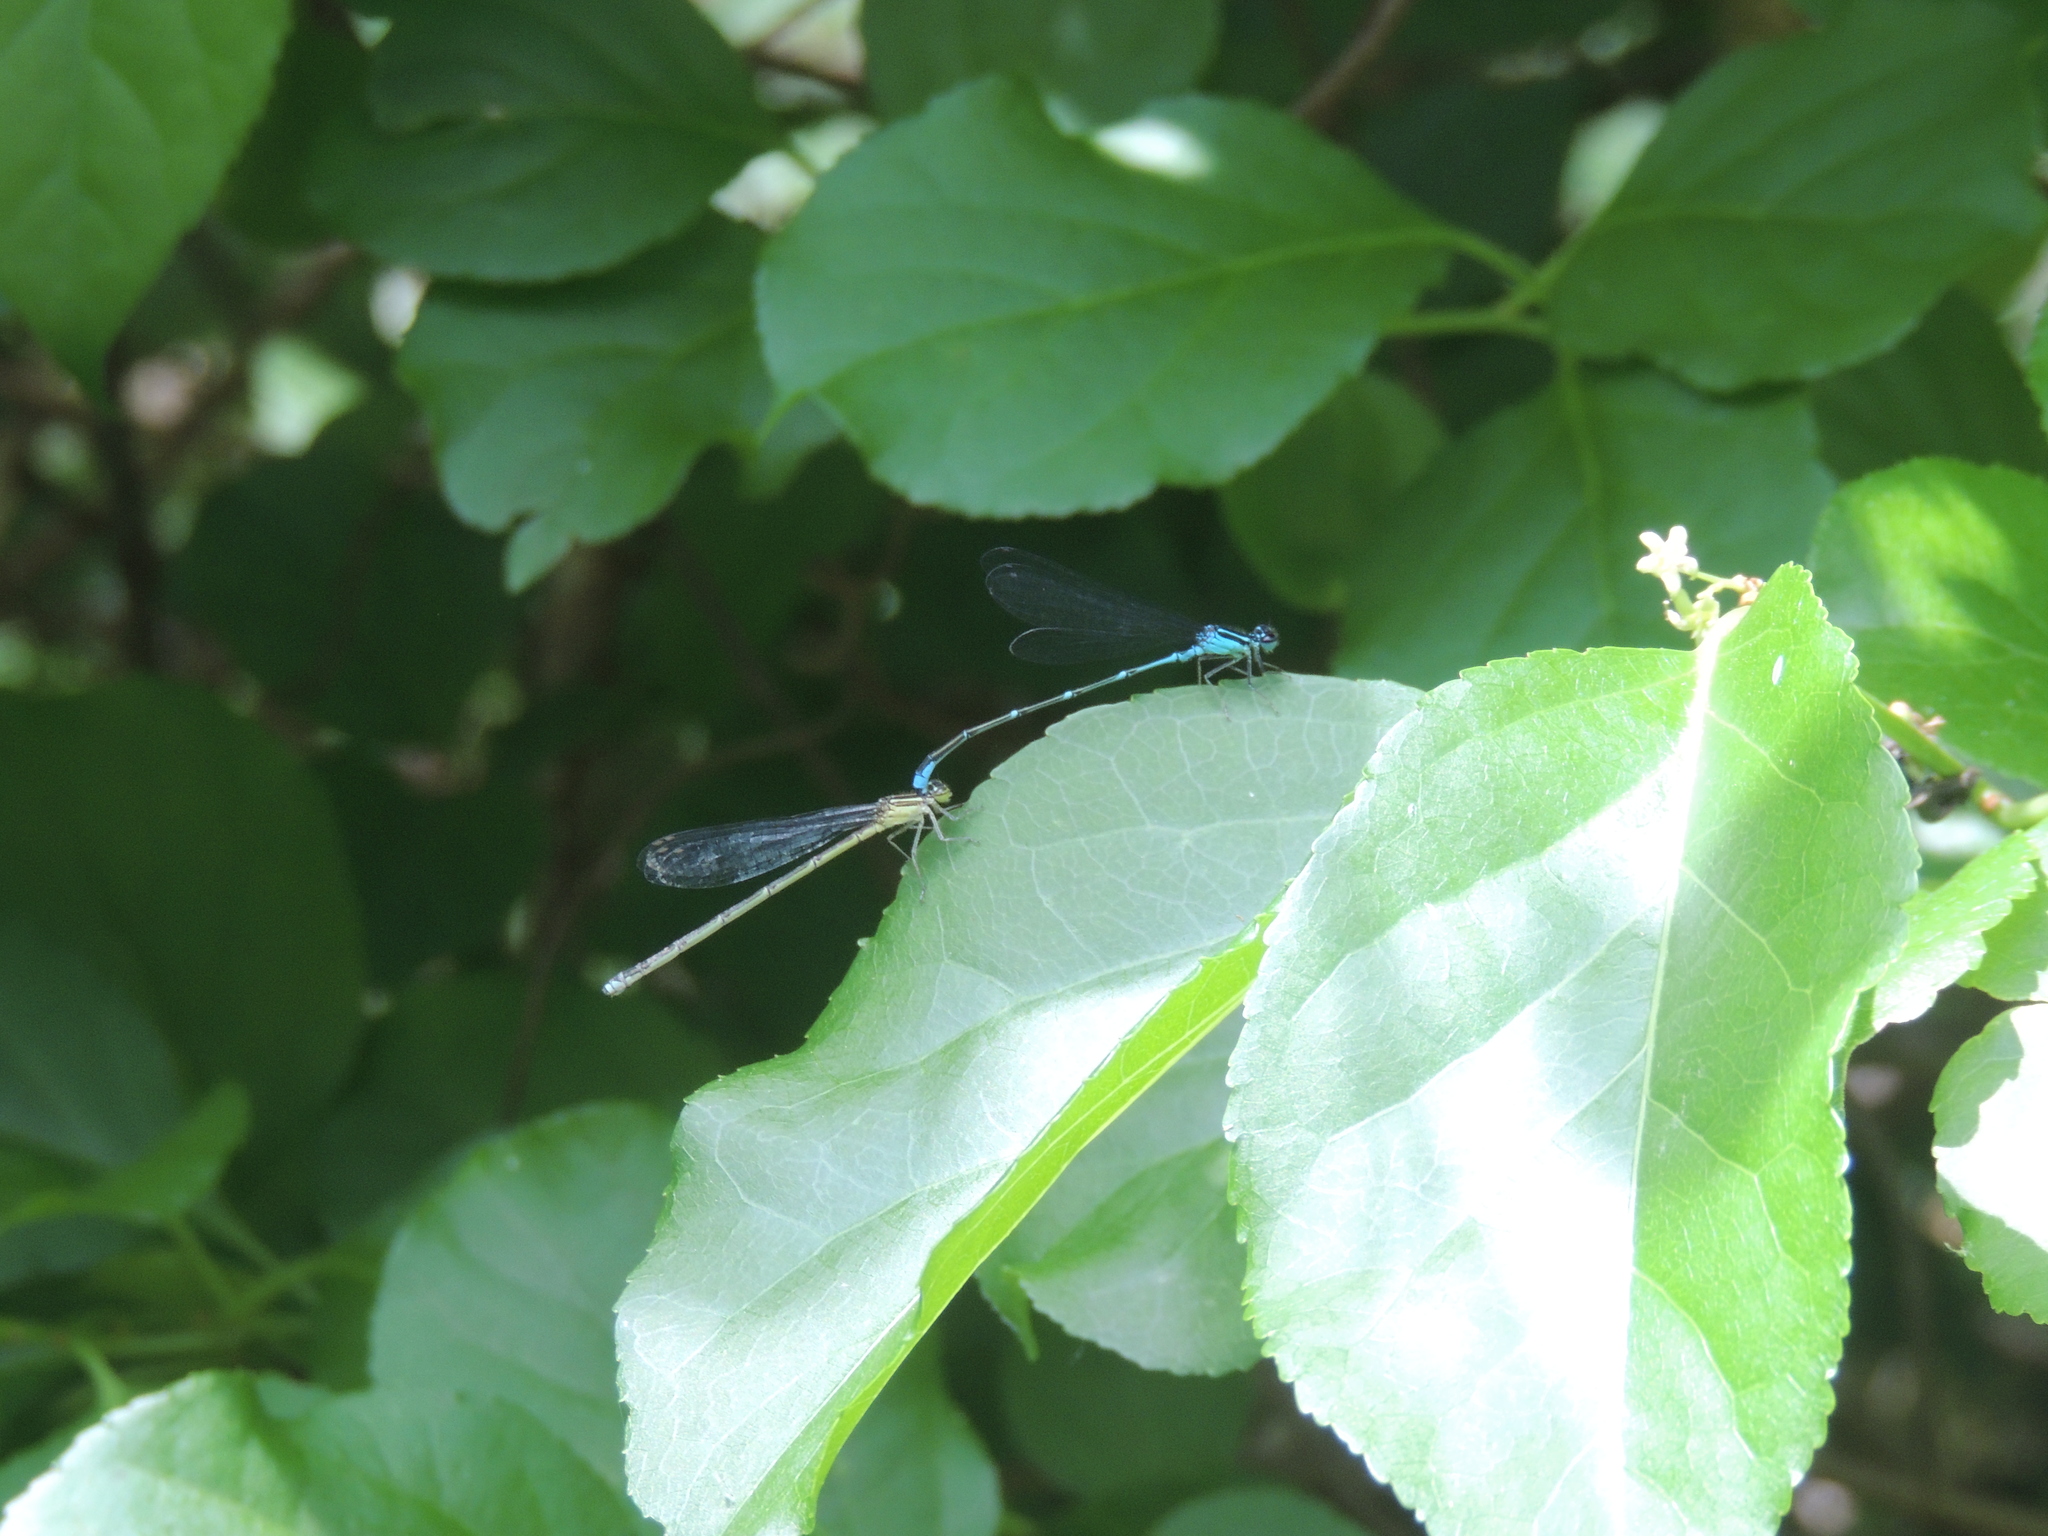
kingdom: Animalia
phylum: Arthropoda
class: Insecta
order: Odonata
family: Coenagrionidae
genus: Enallagma
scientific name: Enallagma exsulans
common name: Stream bluet
